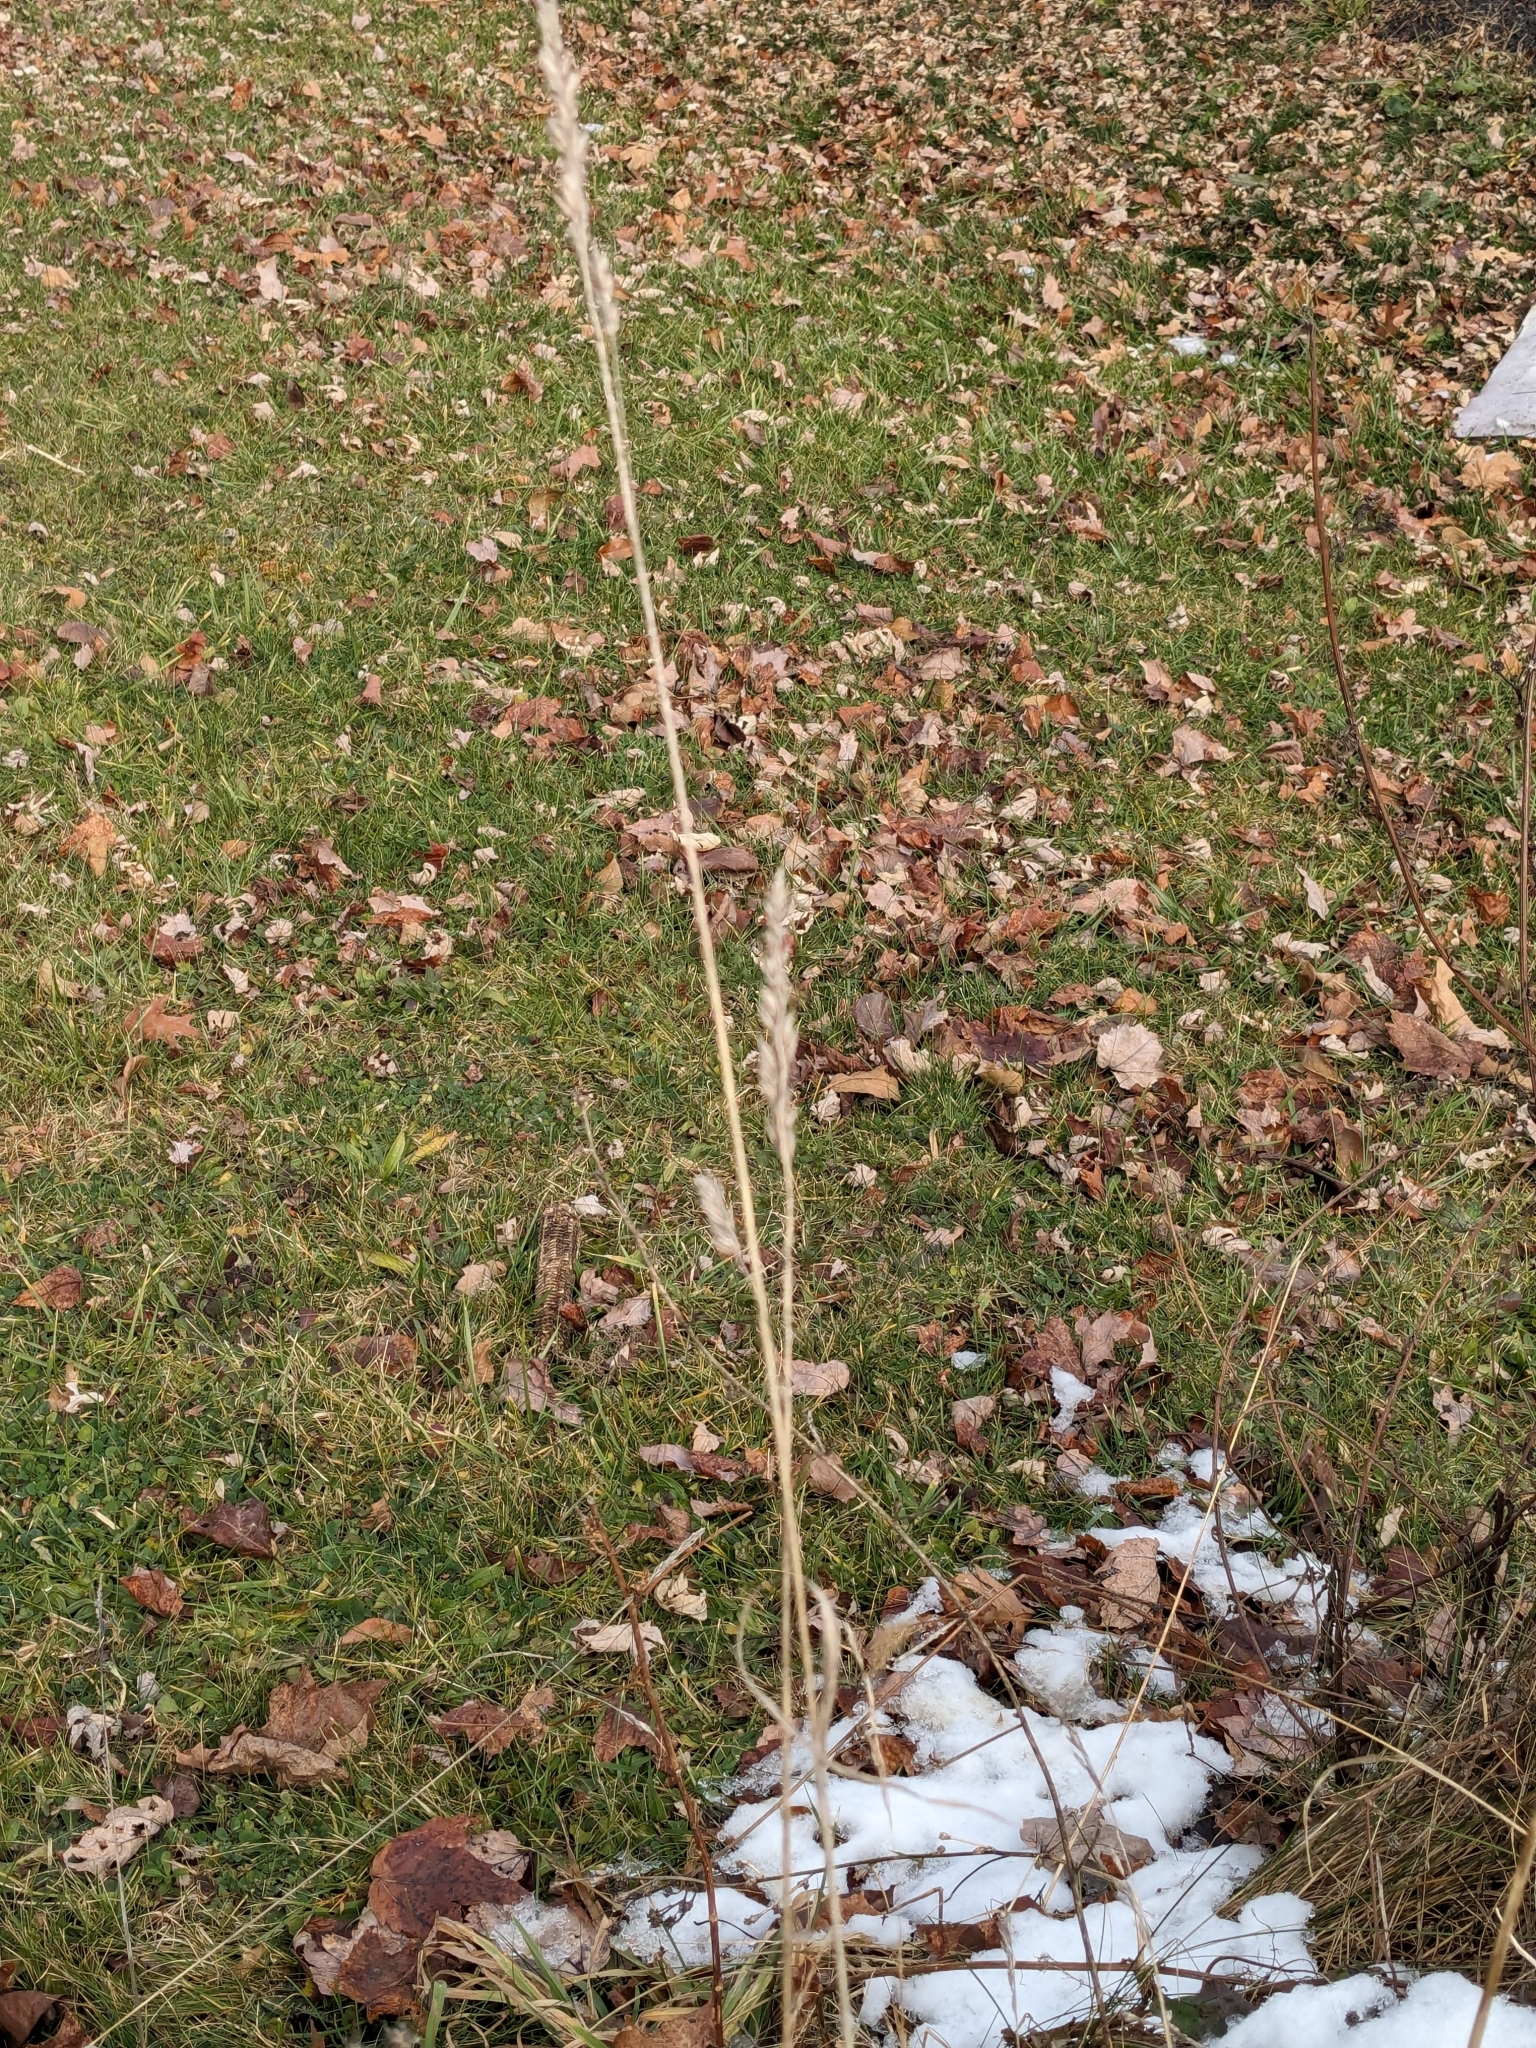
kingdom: Plantae
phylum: Tracheophyta
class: Liliopsida
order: Poales
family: Poaceae
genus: Dactylis
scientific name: Dactylis glomerata
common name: Orchardgrass
